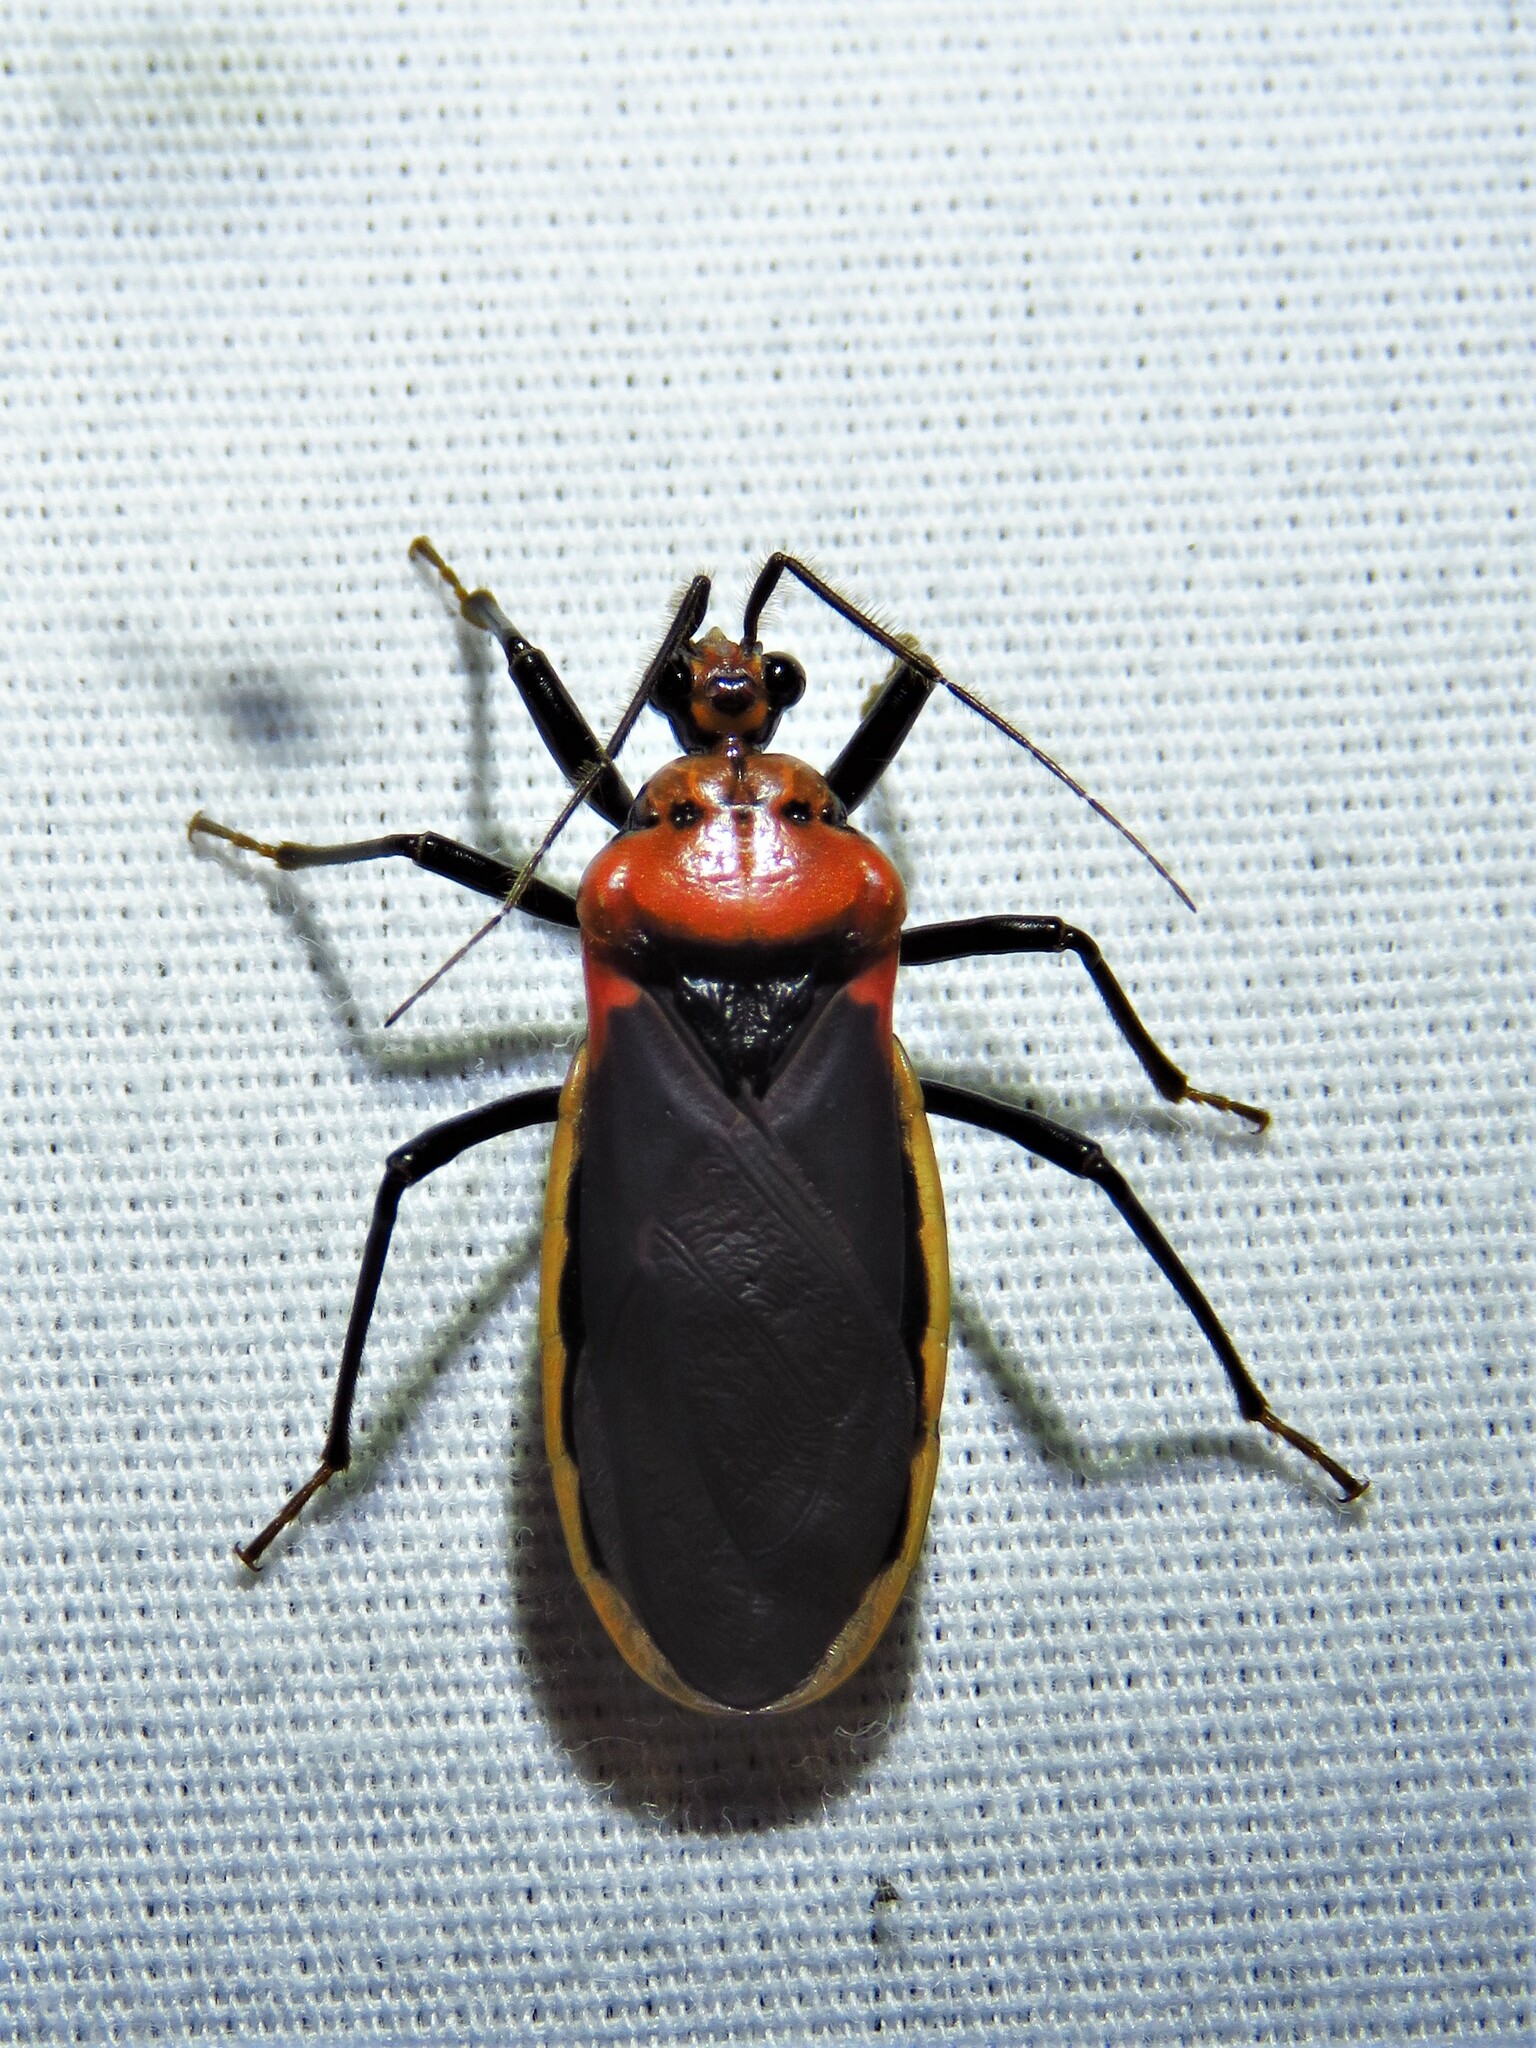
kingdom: Animalia
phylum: Arthropoda
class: Insecta
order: Hemiptera
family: Reduviidae
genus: Rhiginia
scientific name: Rhiginia cinctiventris
